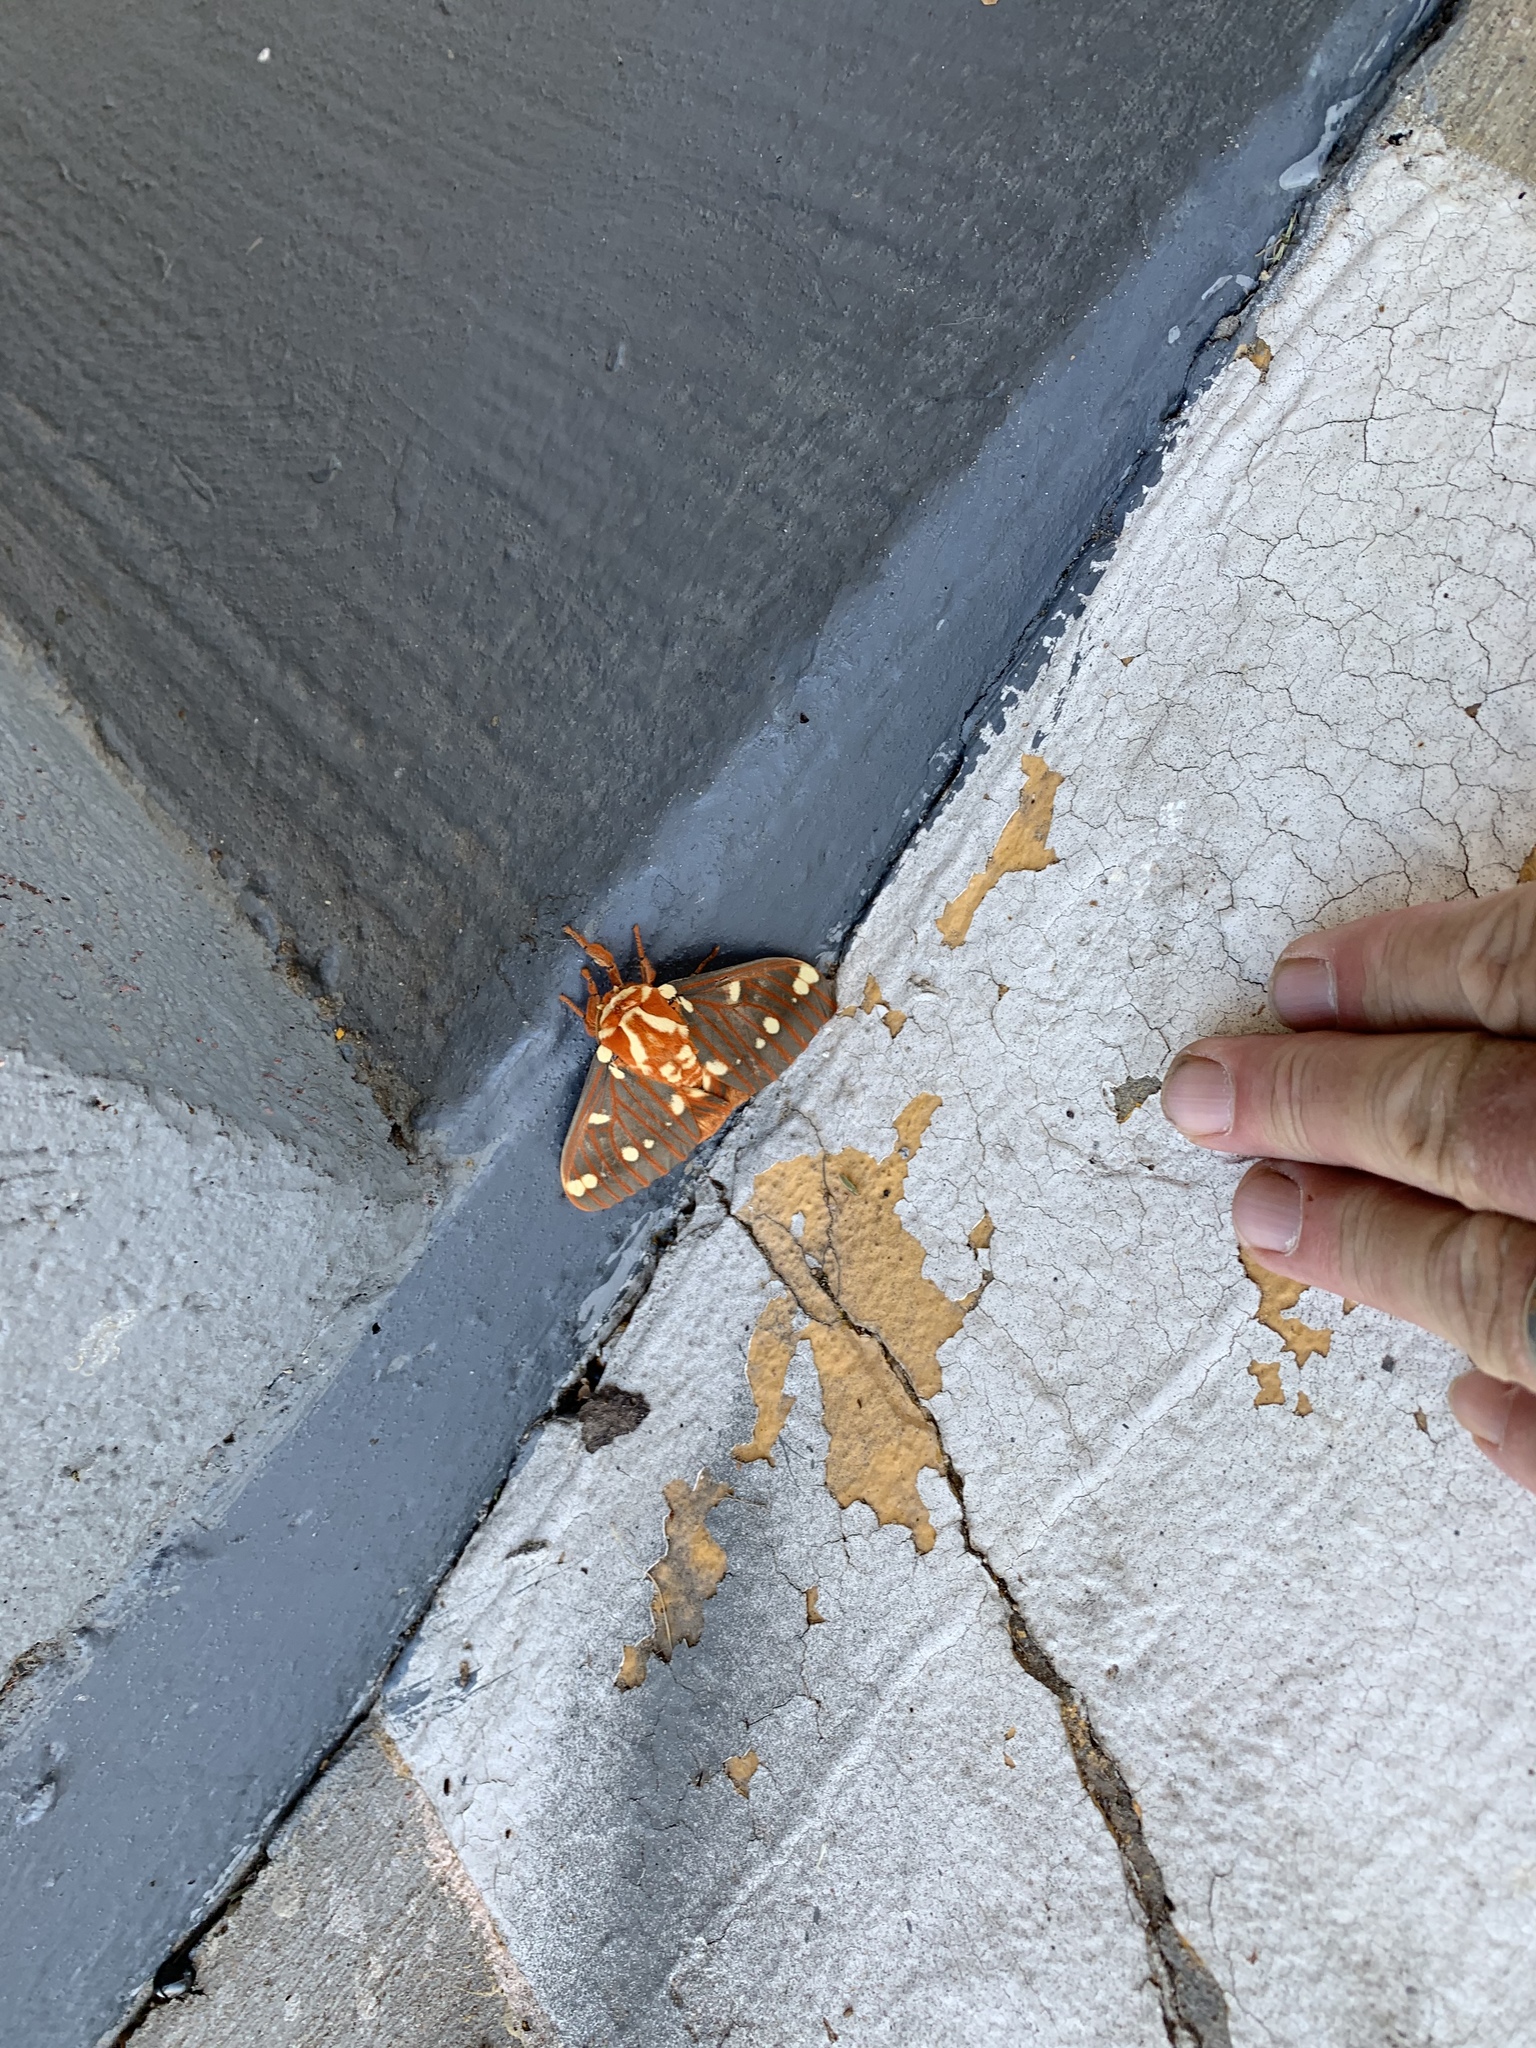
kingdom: Animalia
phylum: Arthropoda
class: Insecta
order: Lepidoptera
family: Saturniidae
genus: Citheronia
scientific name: Citheronia regalis
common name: Hickory horned devil
